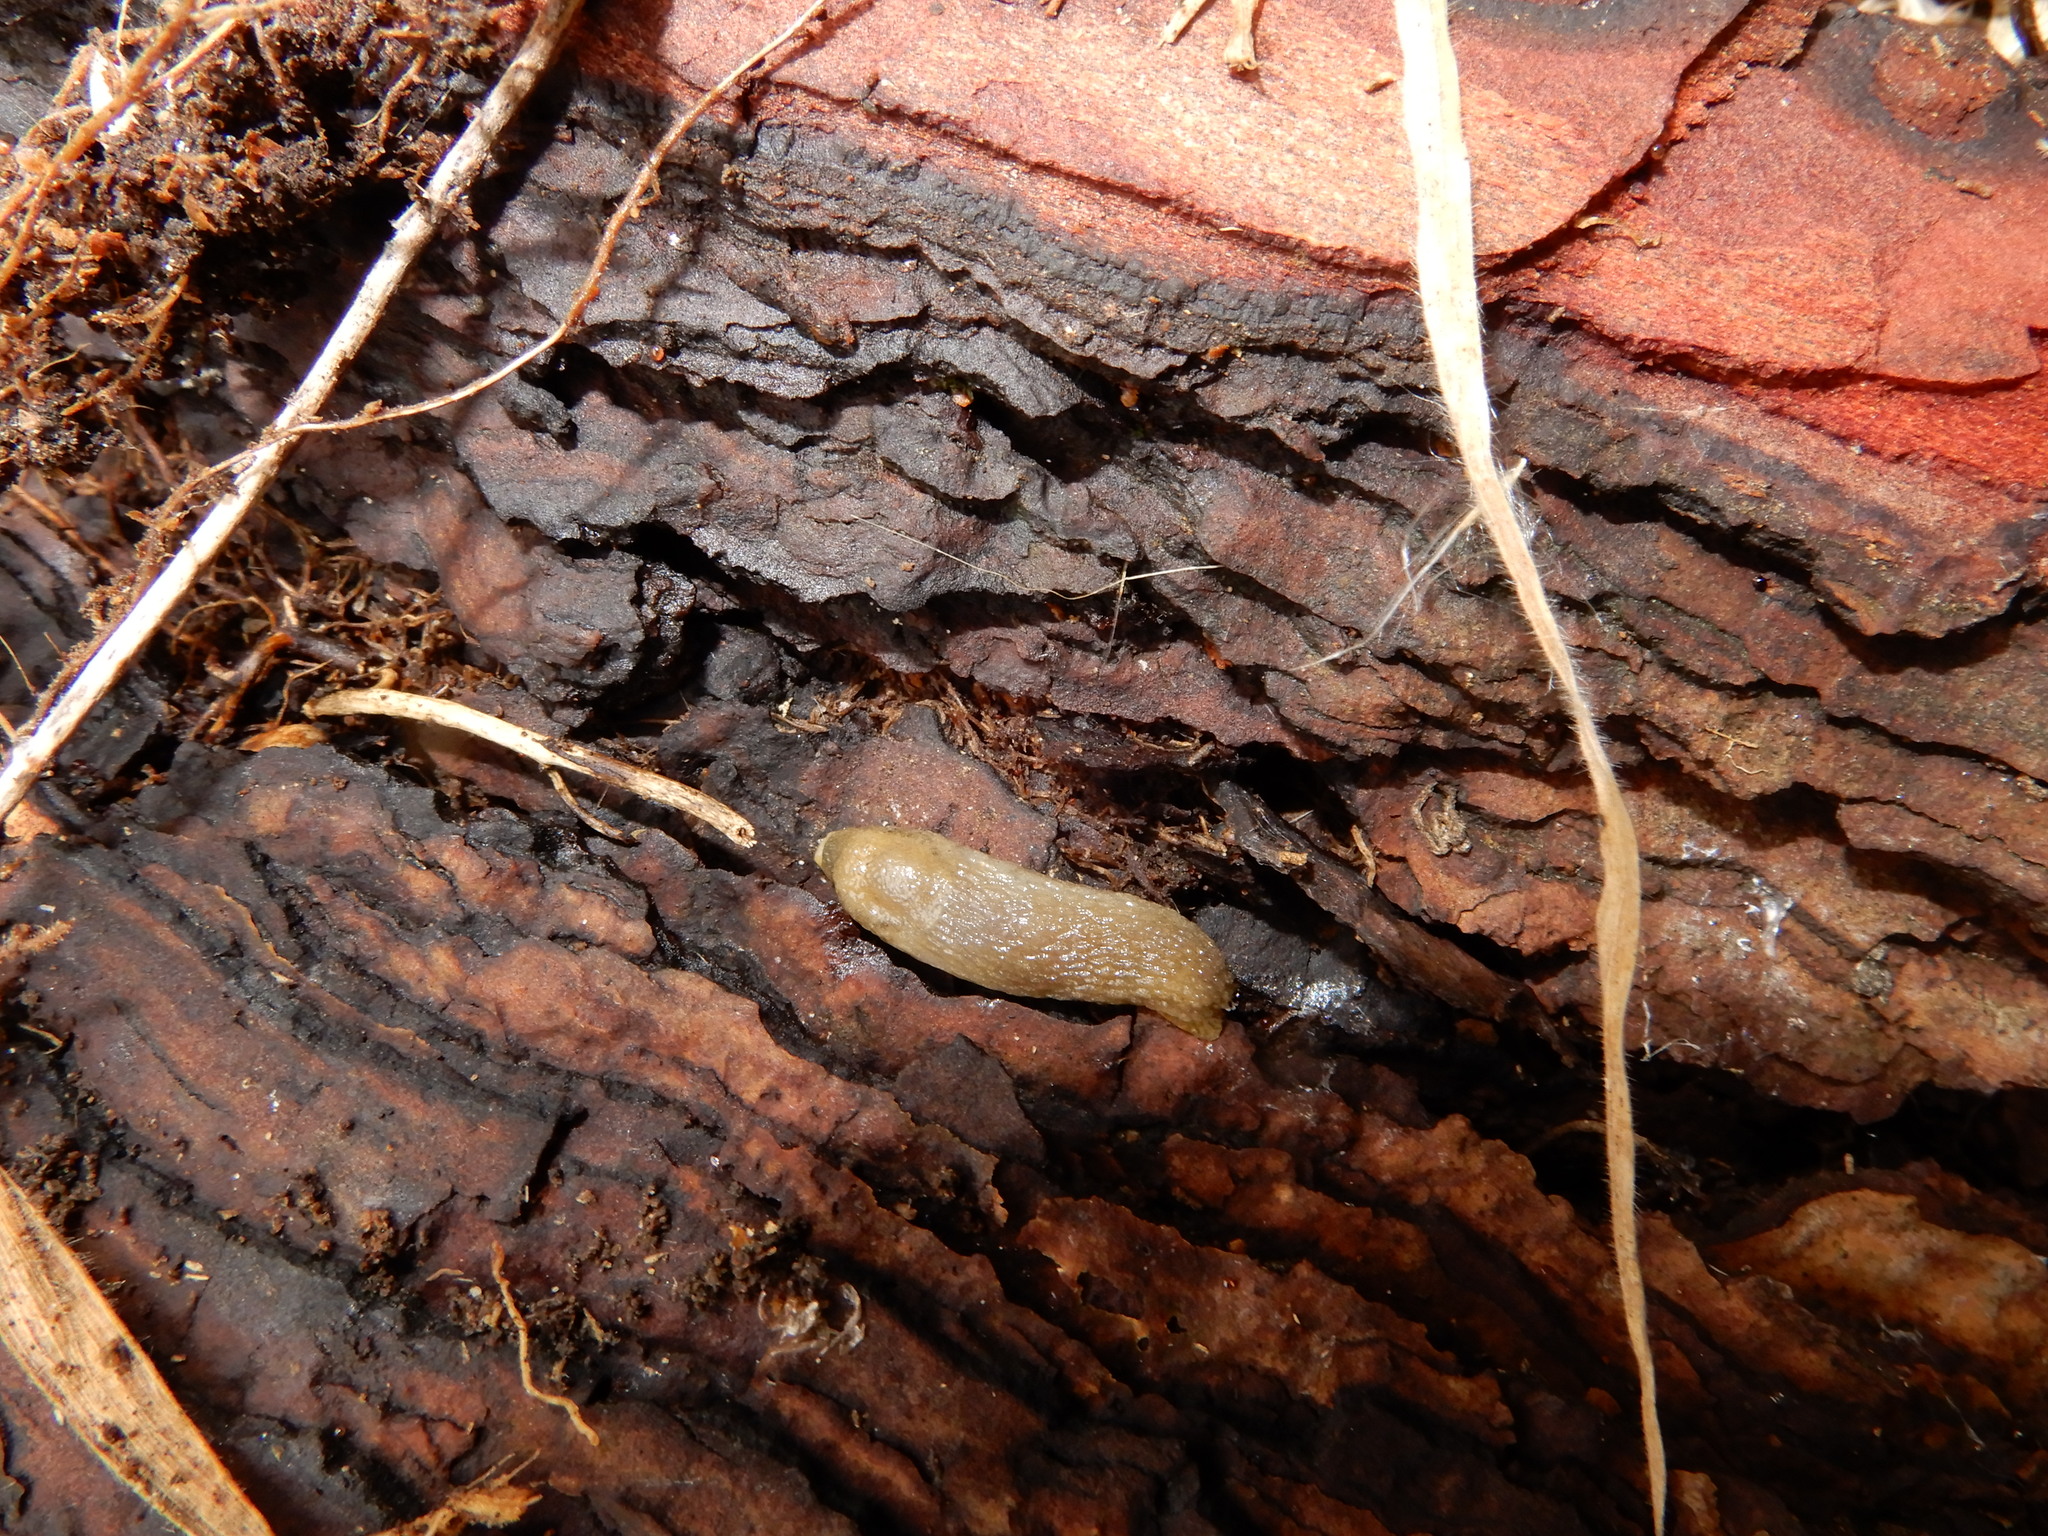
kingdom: Animalia
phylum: Mollusca
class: Gastropoda
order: Stylommatophora
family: Arionidae
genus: Arion
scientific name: Arion intermedius
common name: Hedgehog slug
